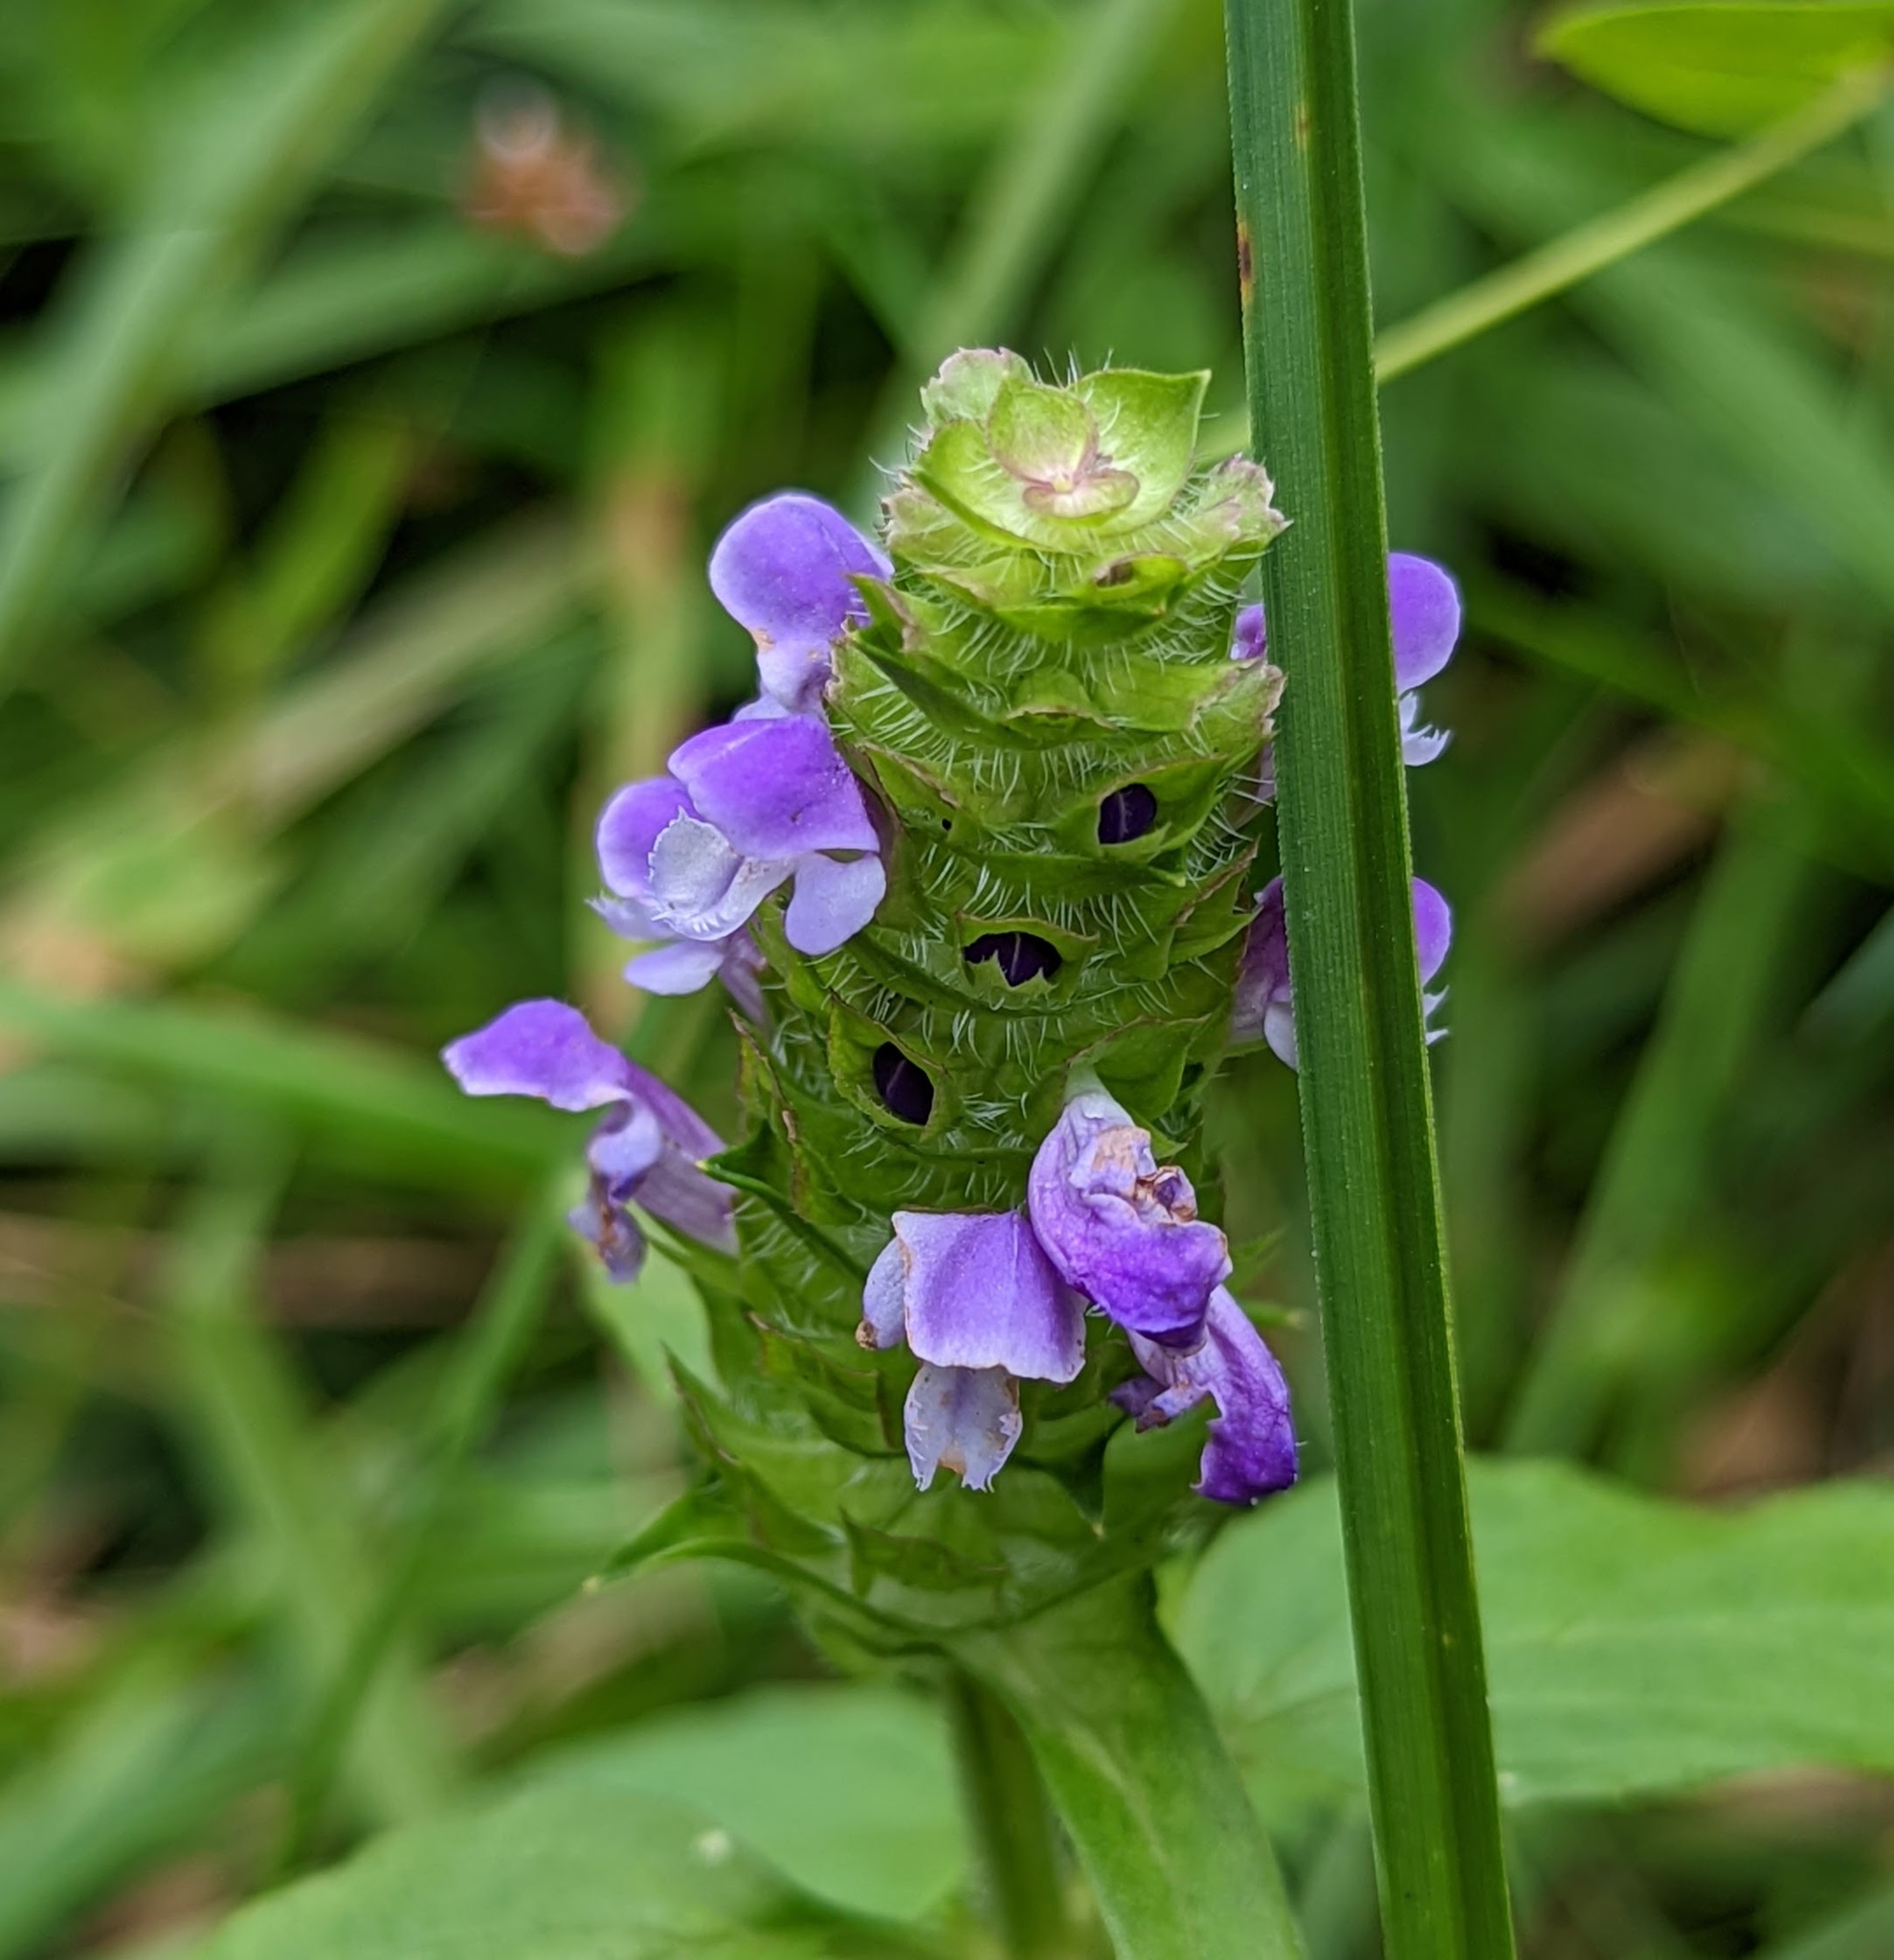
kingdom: Plantae
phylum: Tracheophyta
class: Magnoliopsida
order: Lamiales
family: Lamiaceae
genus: Prunella
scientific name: Prunella vulgaris
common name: Heal-all
